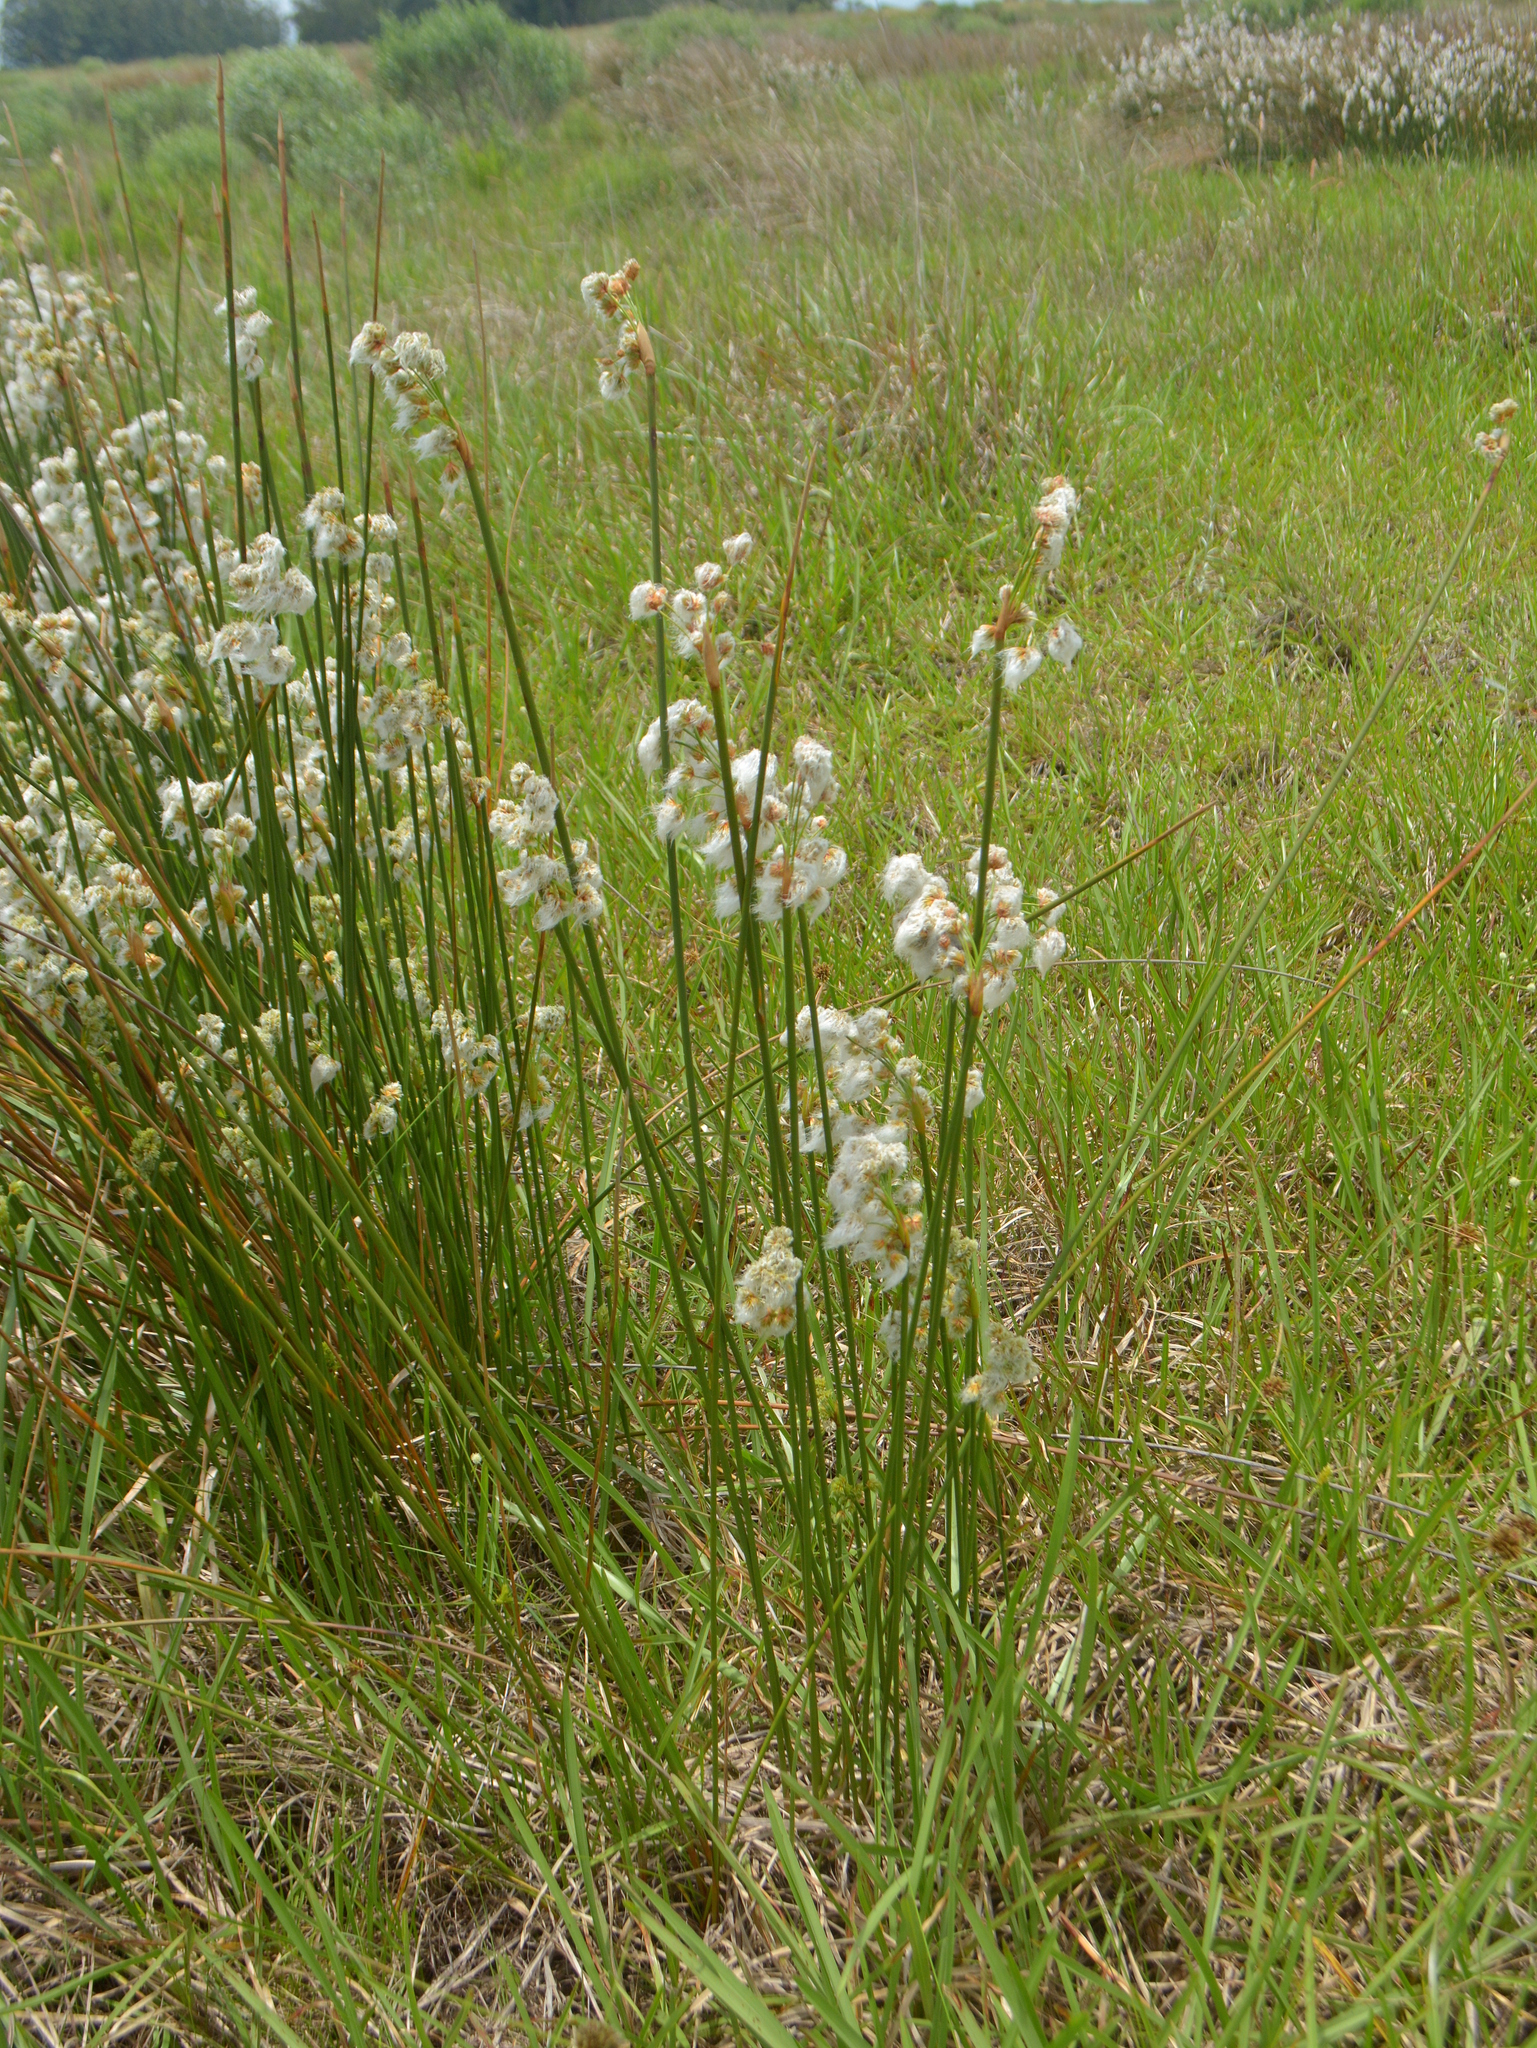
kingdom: Plantae
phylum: Tracheophyta
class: Liliopsida
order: Poales
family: Cyperaceae
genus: Cyperus
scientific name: Cyperus trigynus
